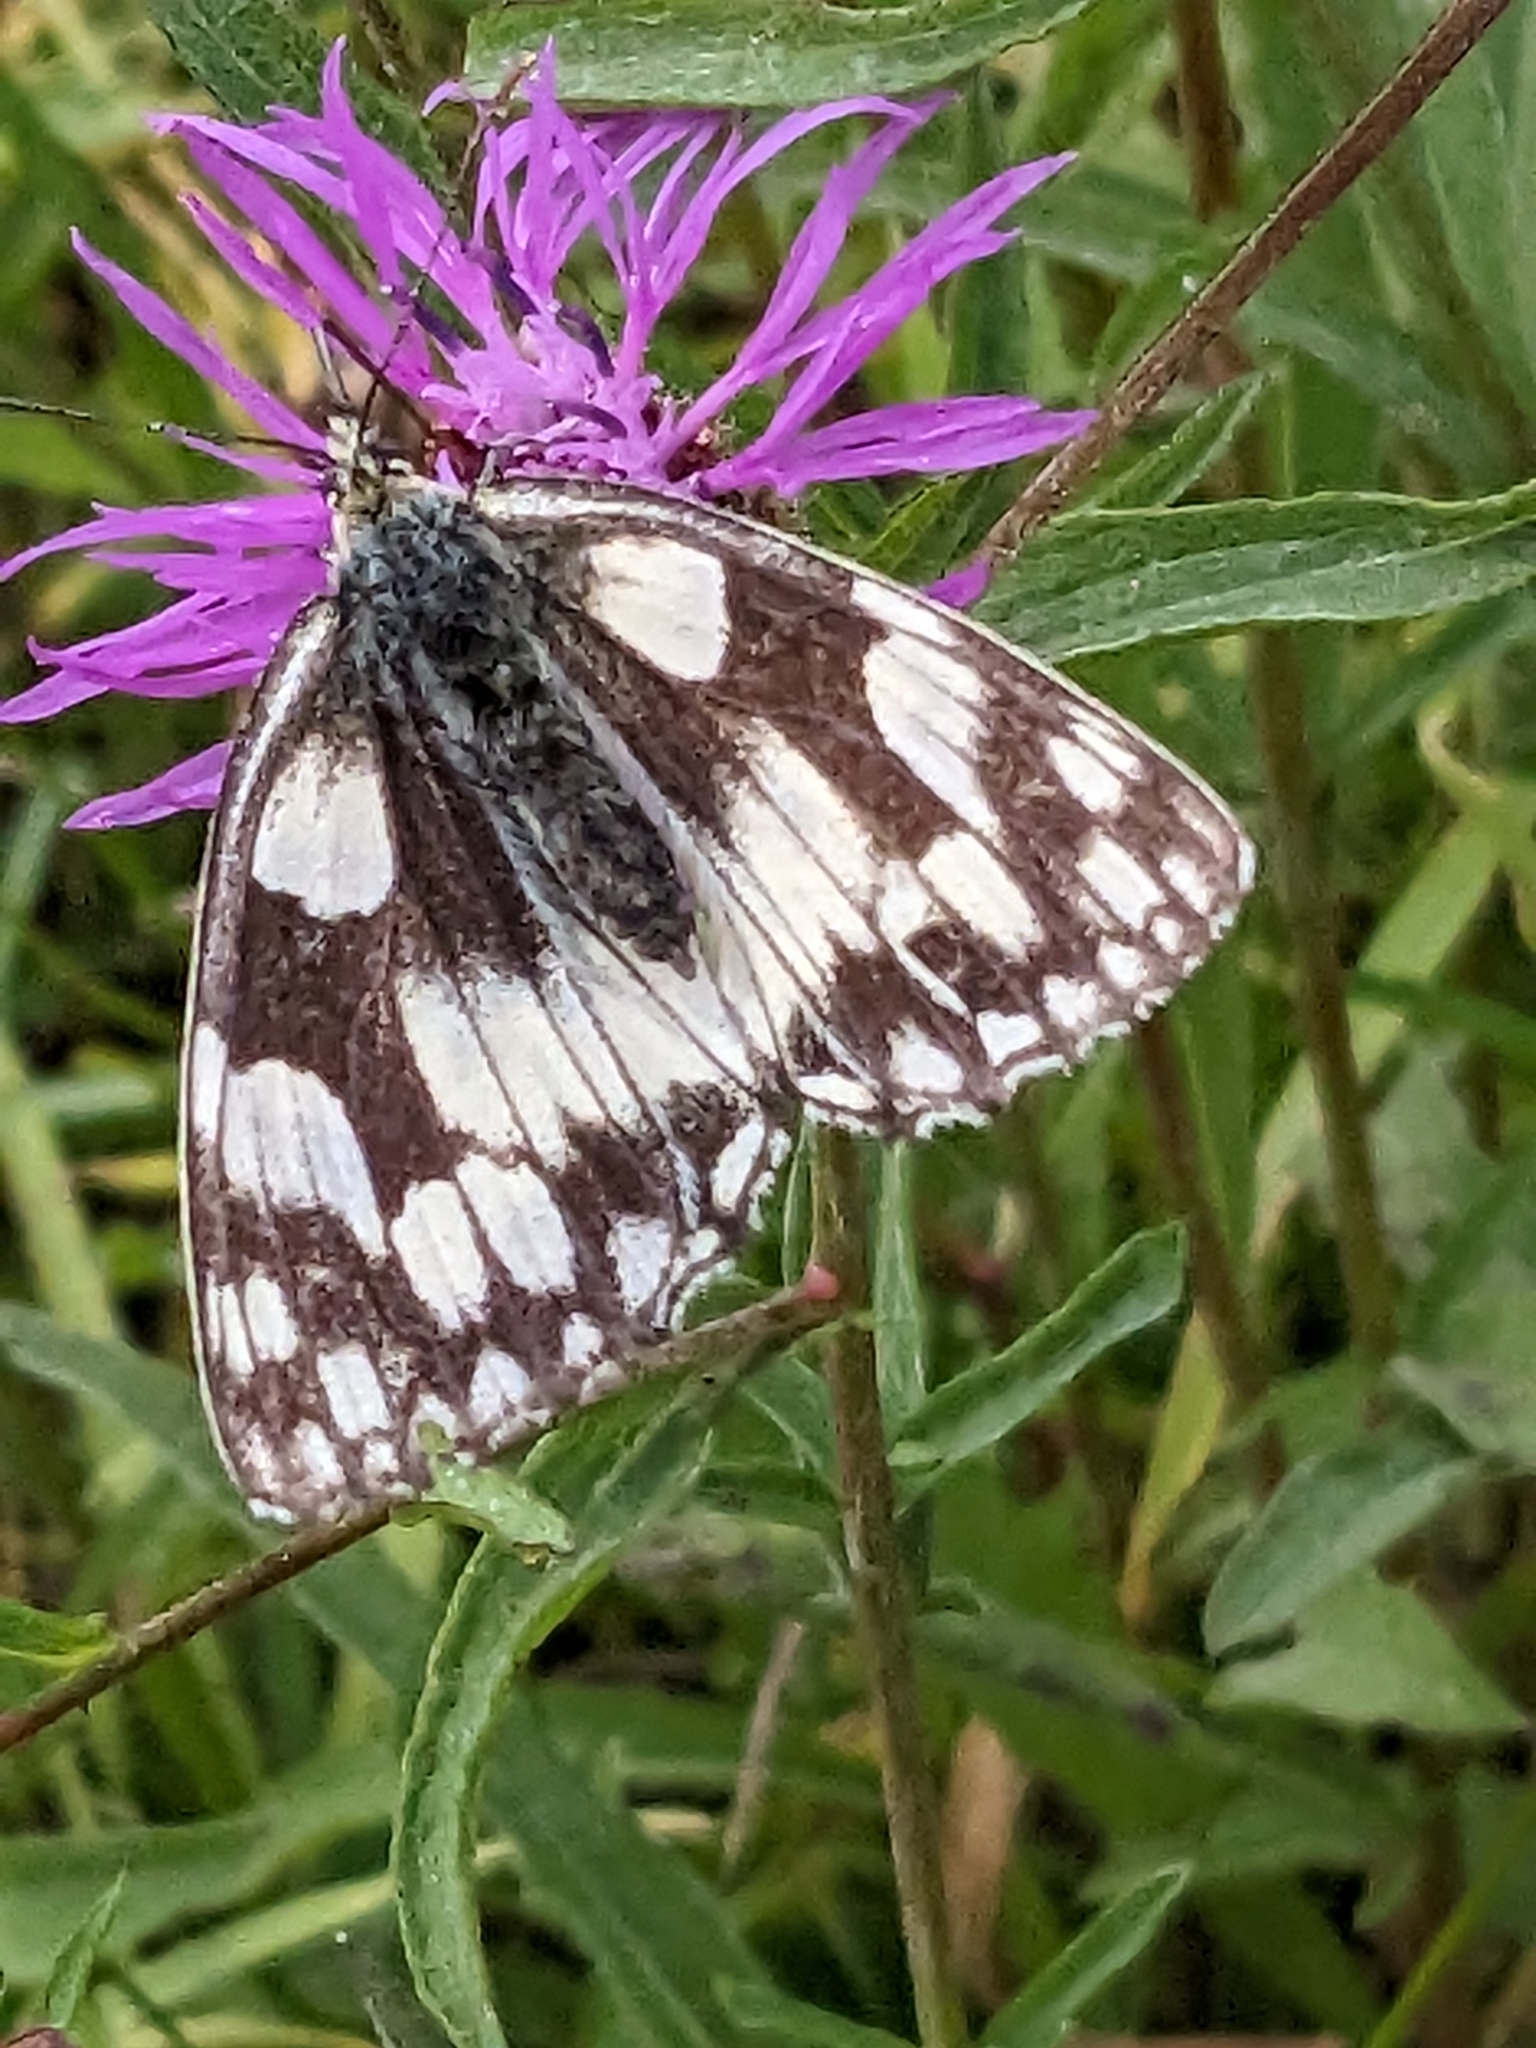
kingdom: Animalia
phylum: Arthropoda
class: Insecta
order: Lepidoptera
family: Nymphalidae
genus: Melanargia
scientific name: Melanargia galathea
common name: Marbled white
